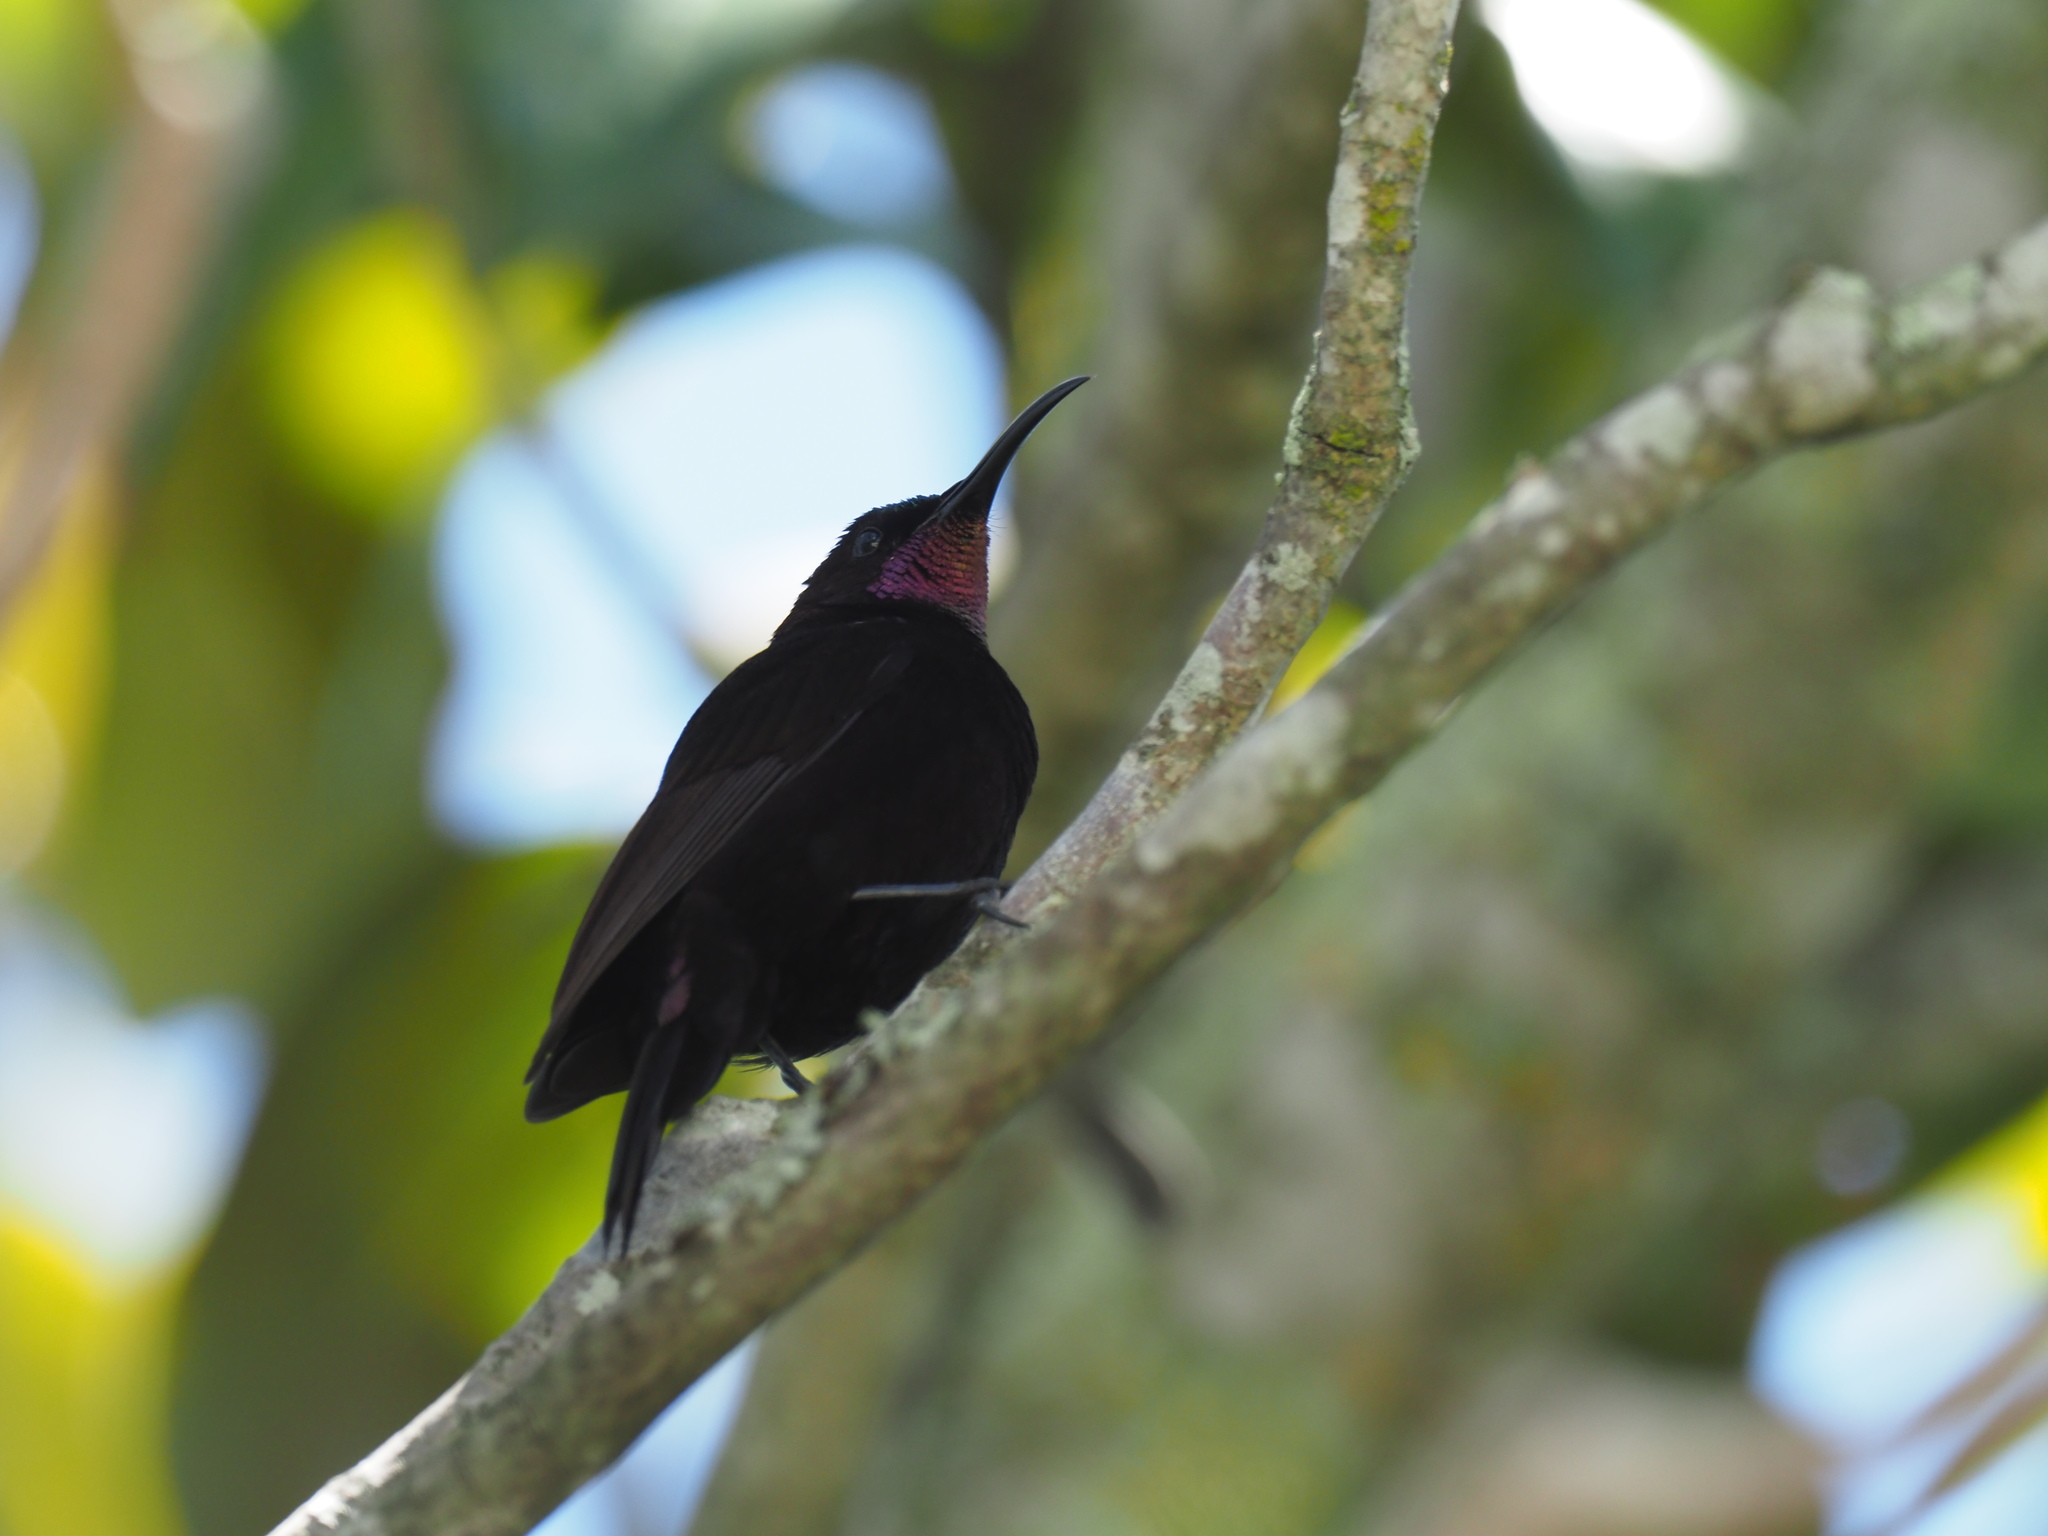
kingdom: Animalia
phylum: Chordata
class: Aves
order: Passeriformes
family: Nectariniidae
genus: Chalcomitra
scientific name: Chalcomitra amethystina
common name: Amethyst sunbird
